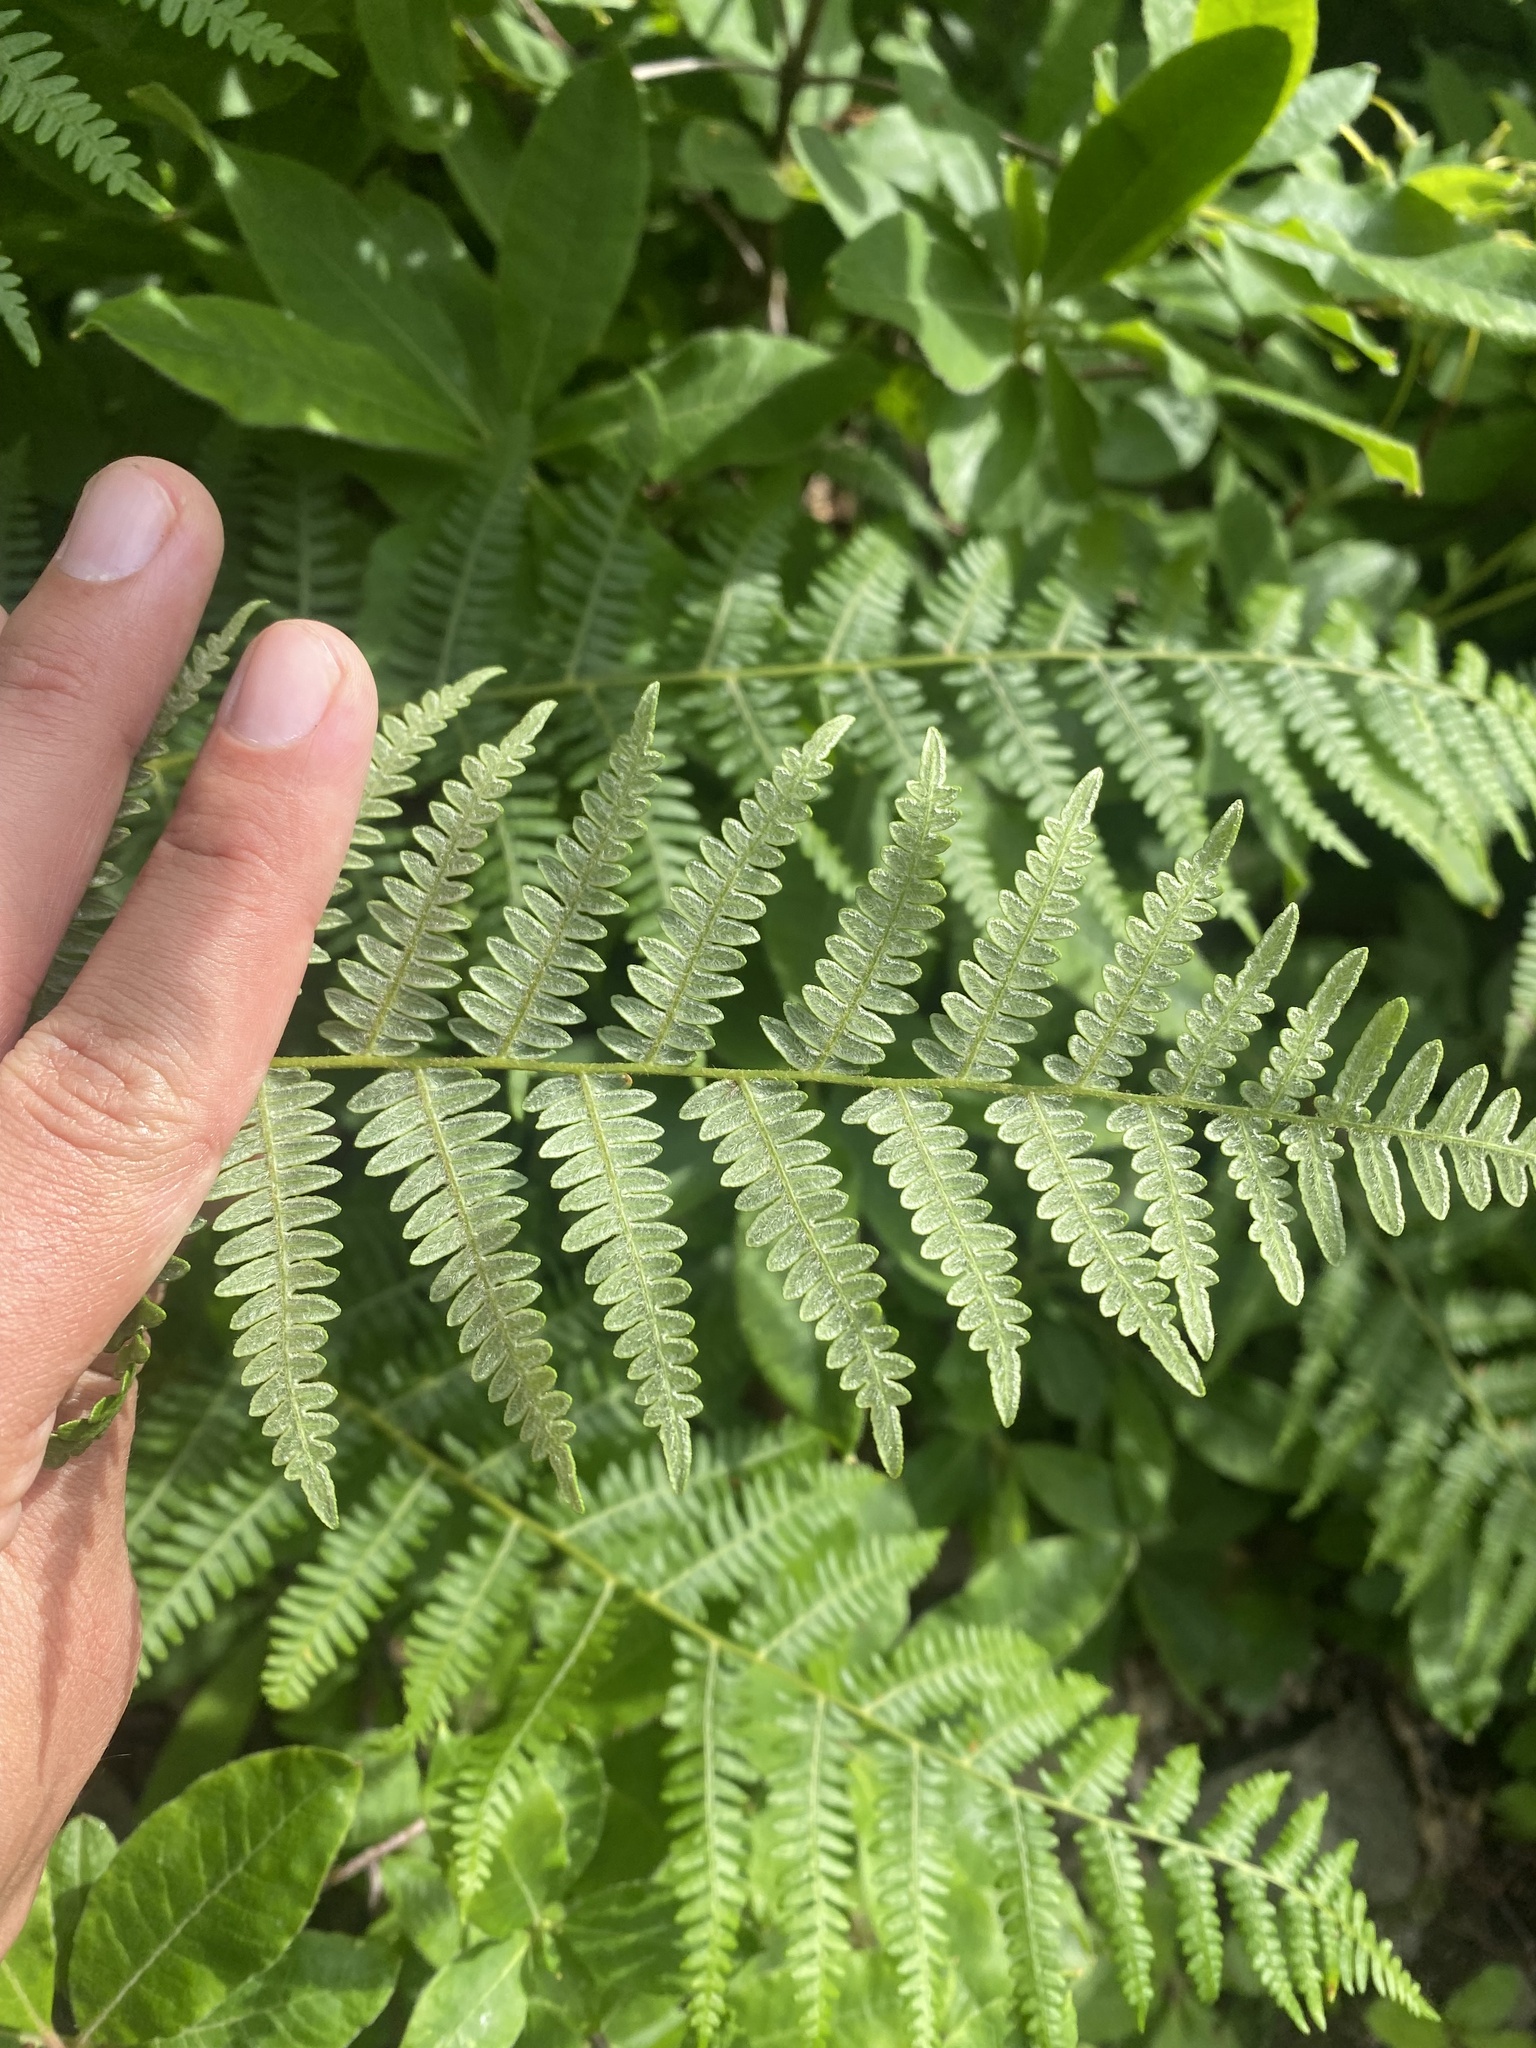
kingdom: Plantae
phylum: Tracheophyta
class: Polypodiopsida
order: Polypodiales
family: Dennstaedtiaceae
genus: Pteridium
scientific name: Pteridium tauricum
